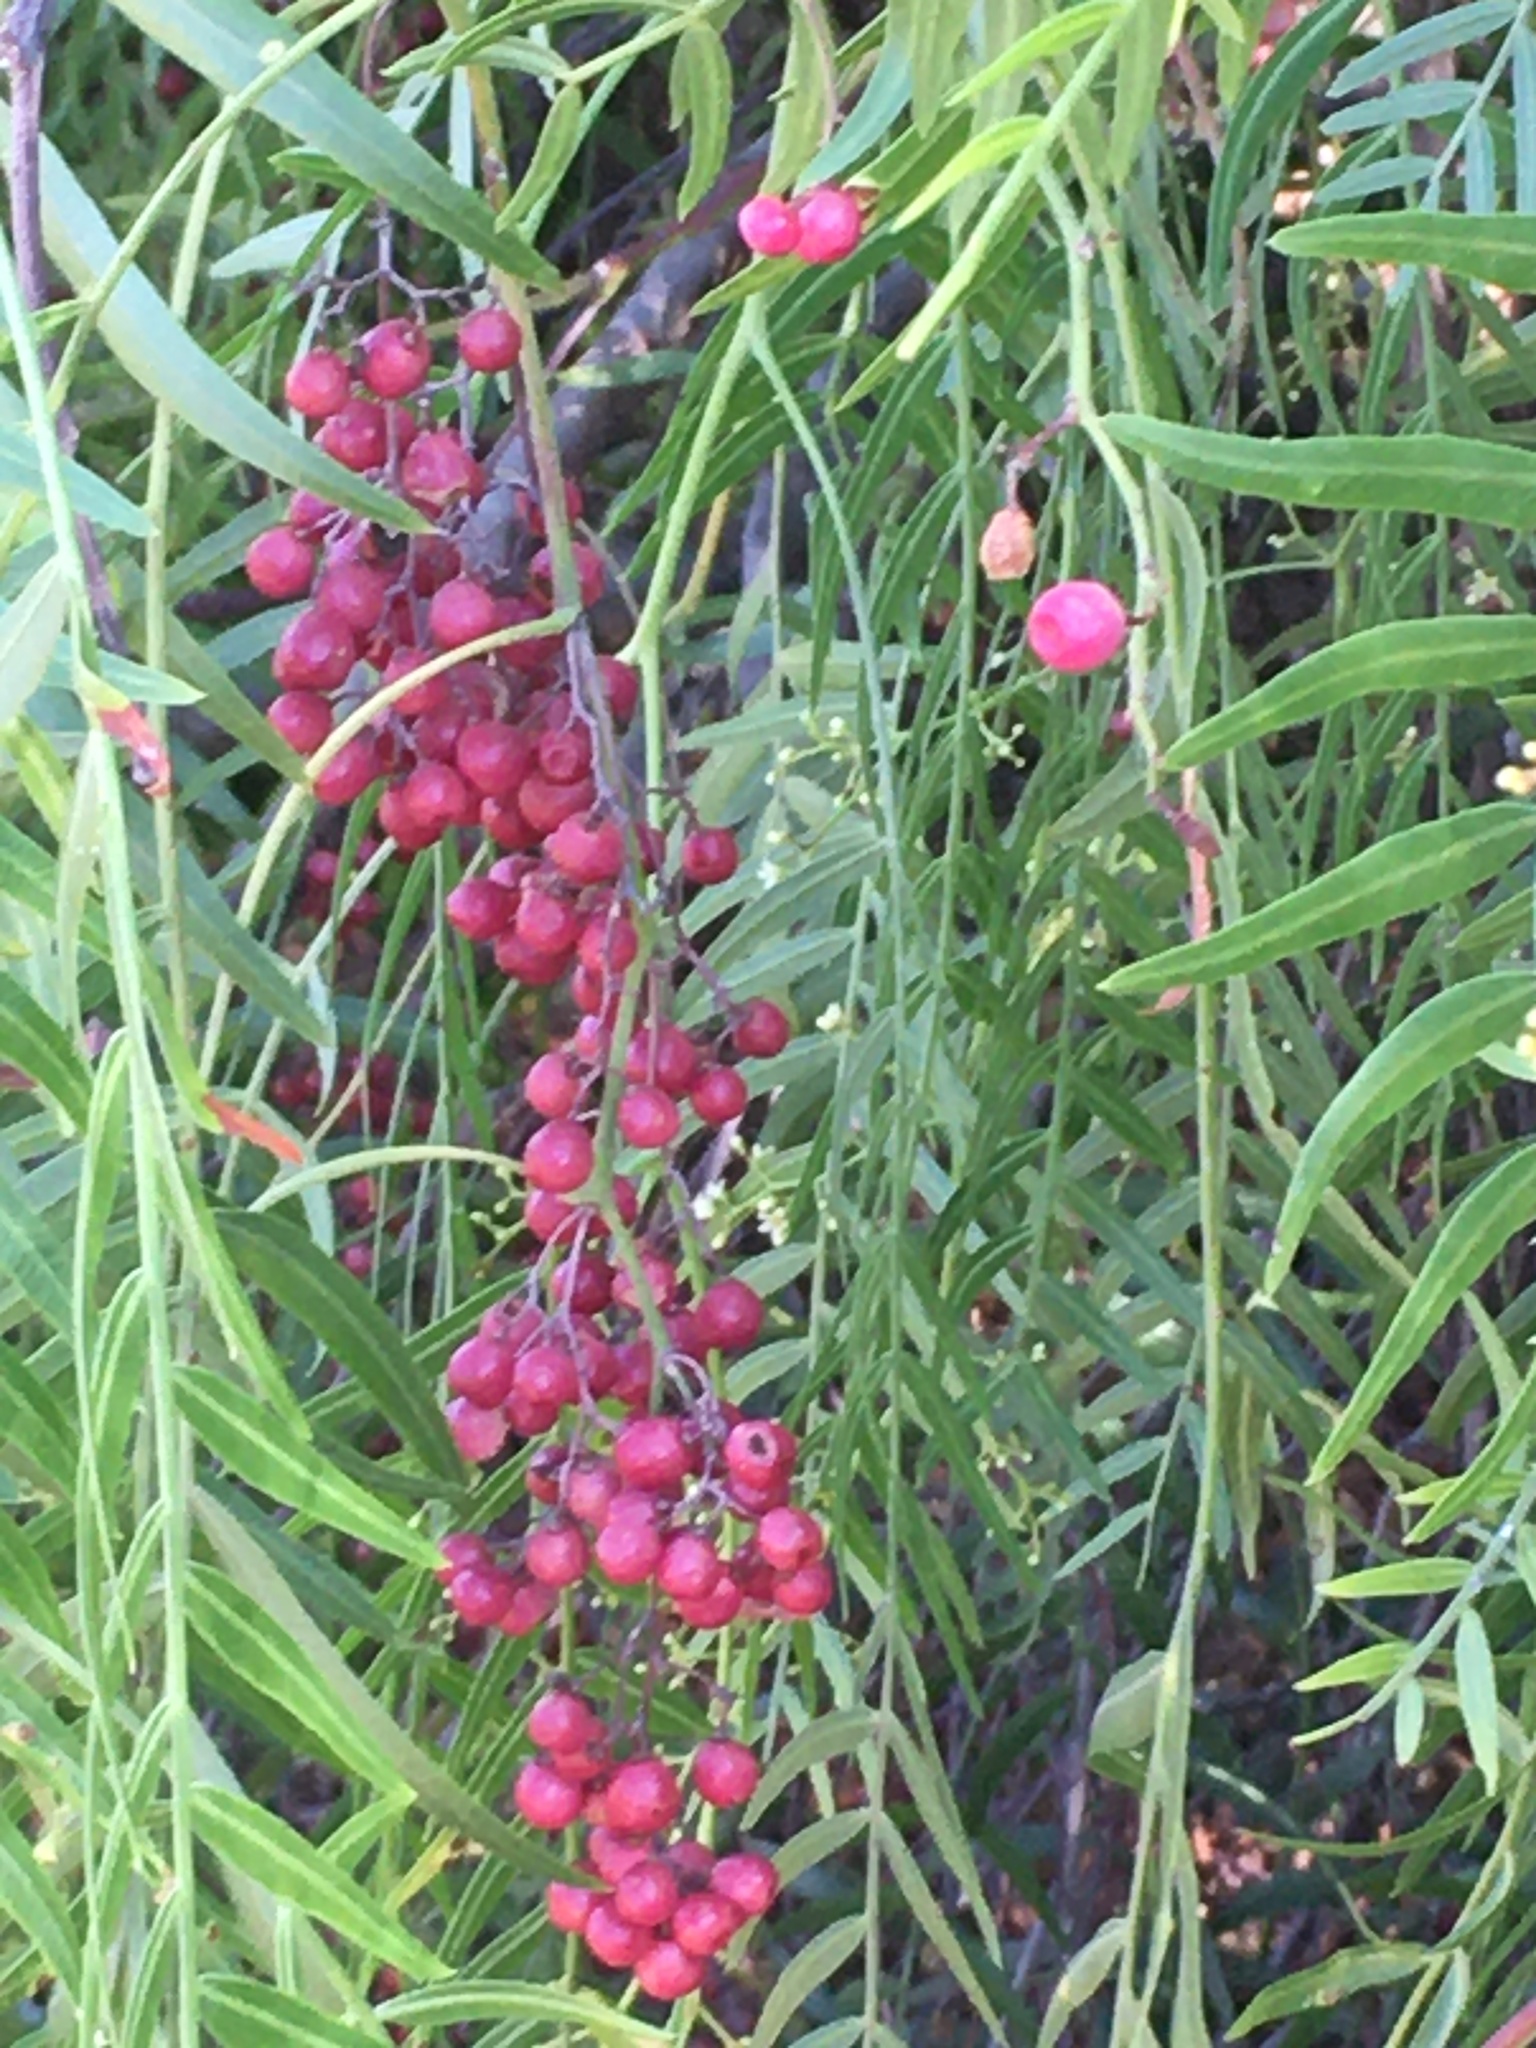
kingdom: Plantae
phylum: Tracheophyta
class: Magnoliopsida
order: Sapindales
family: Anacardiaceae
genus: Schinus
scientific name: Schinus molle
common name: Peruvian peppertree
